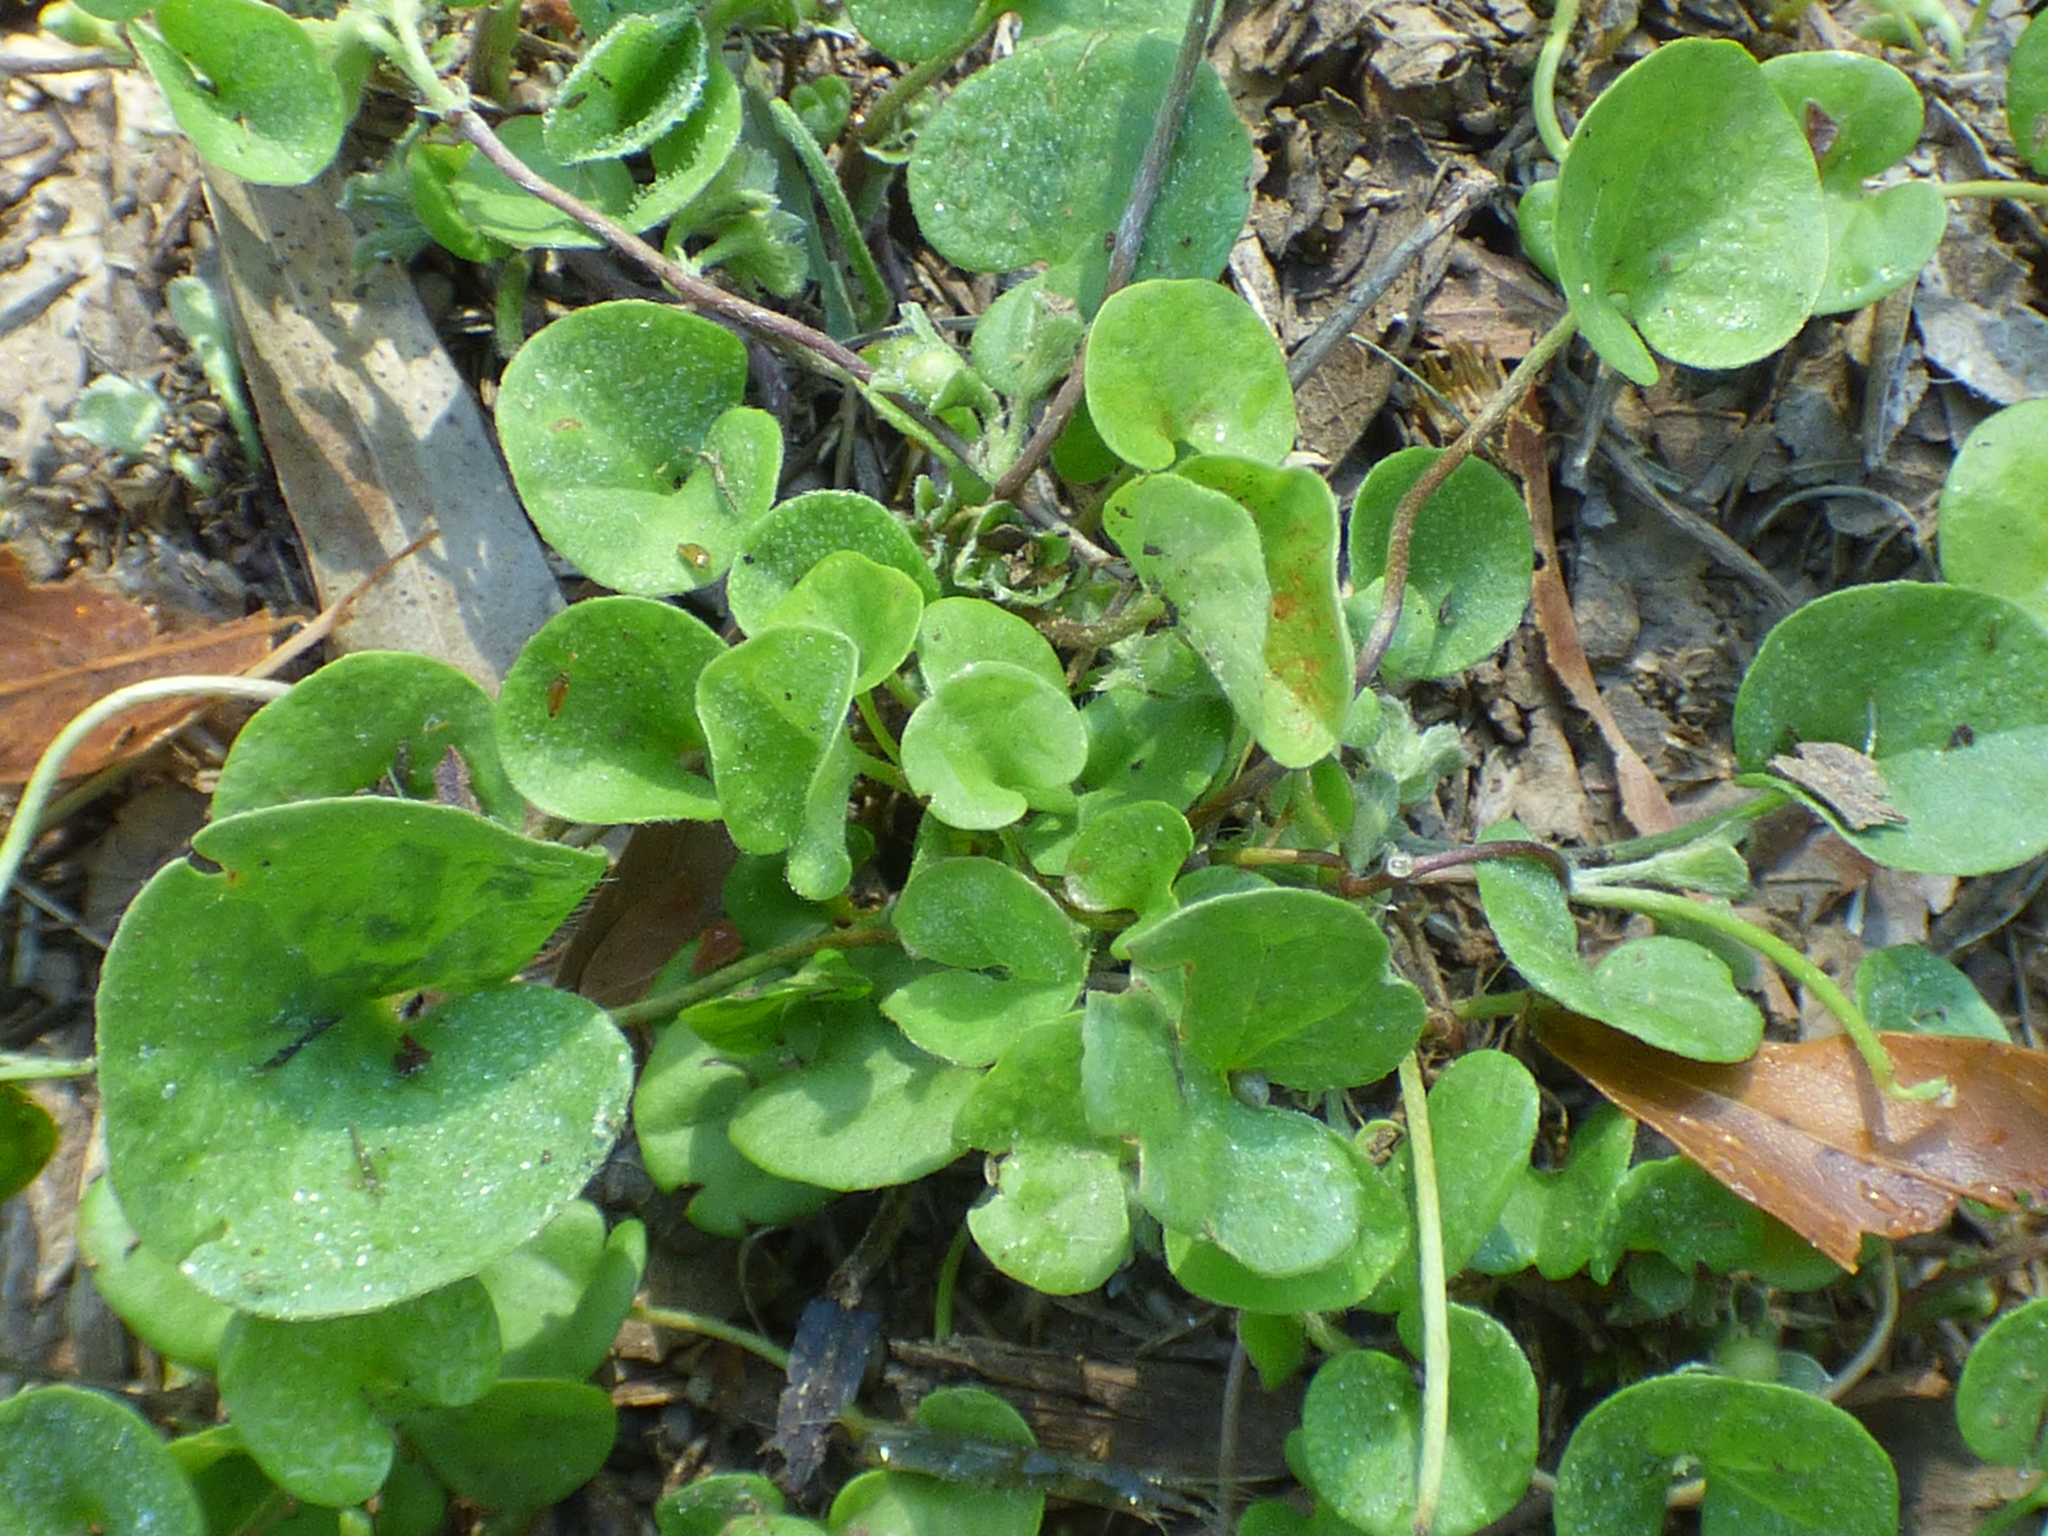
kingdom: Plantae
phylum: Tracheophyta
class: Magnoliopsida
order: Solanales
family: Convolvulaceae
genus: Dichondra
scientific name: Dichondra carolinensis
